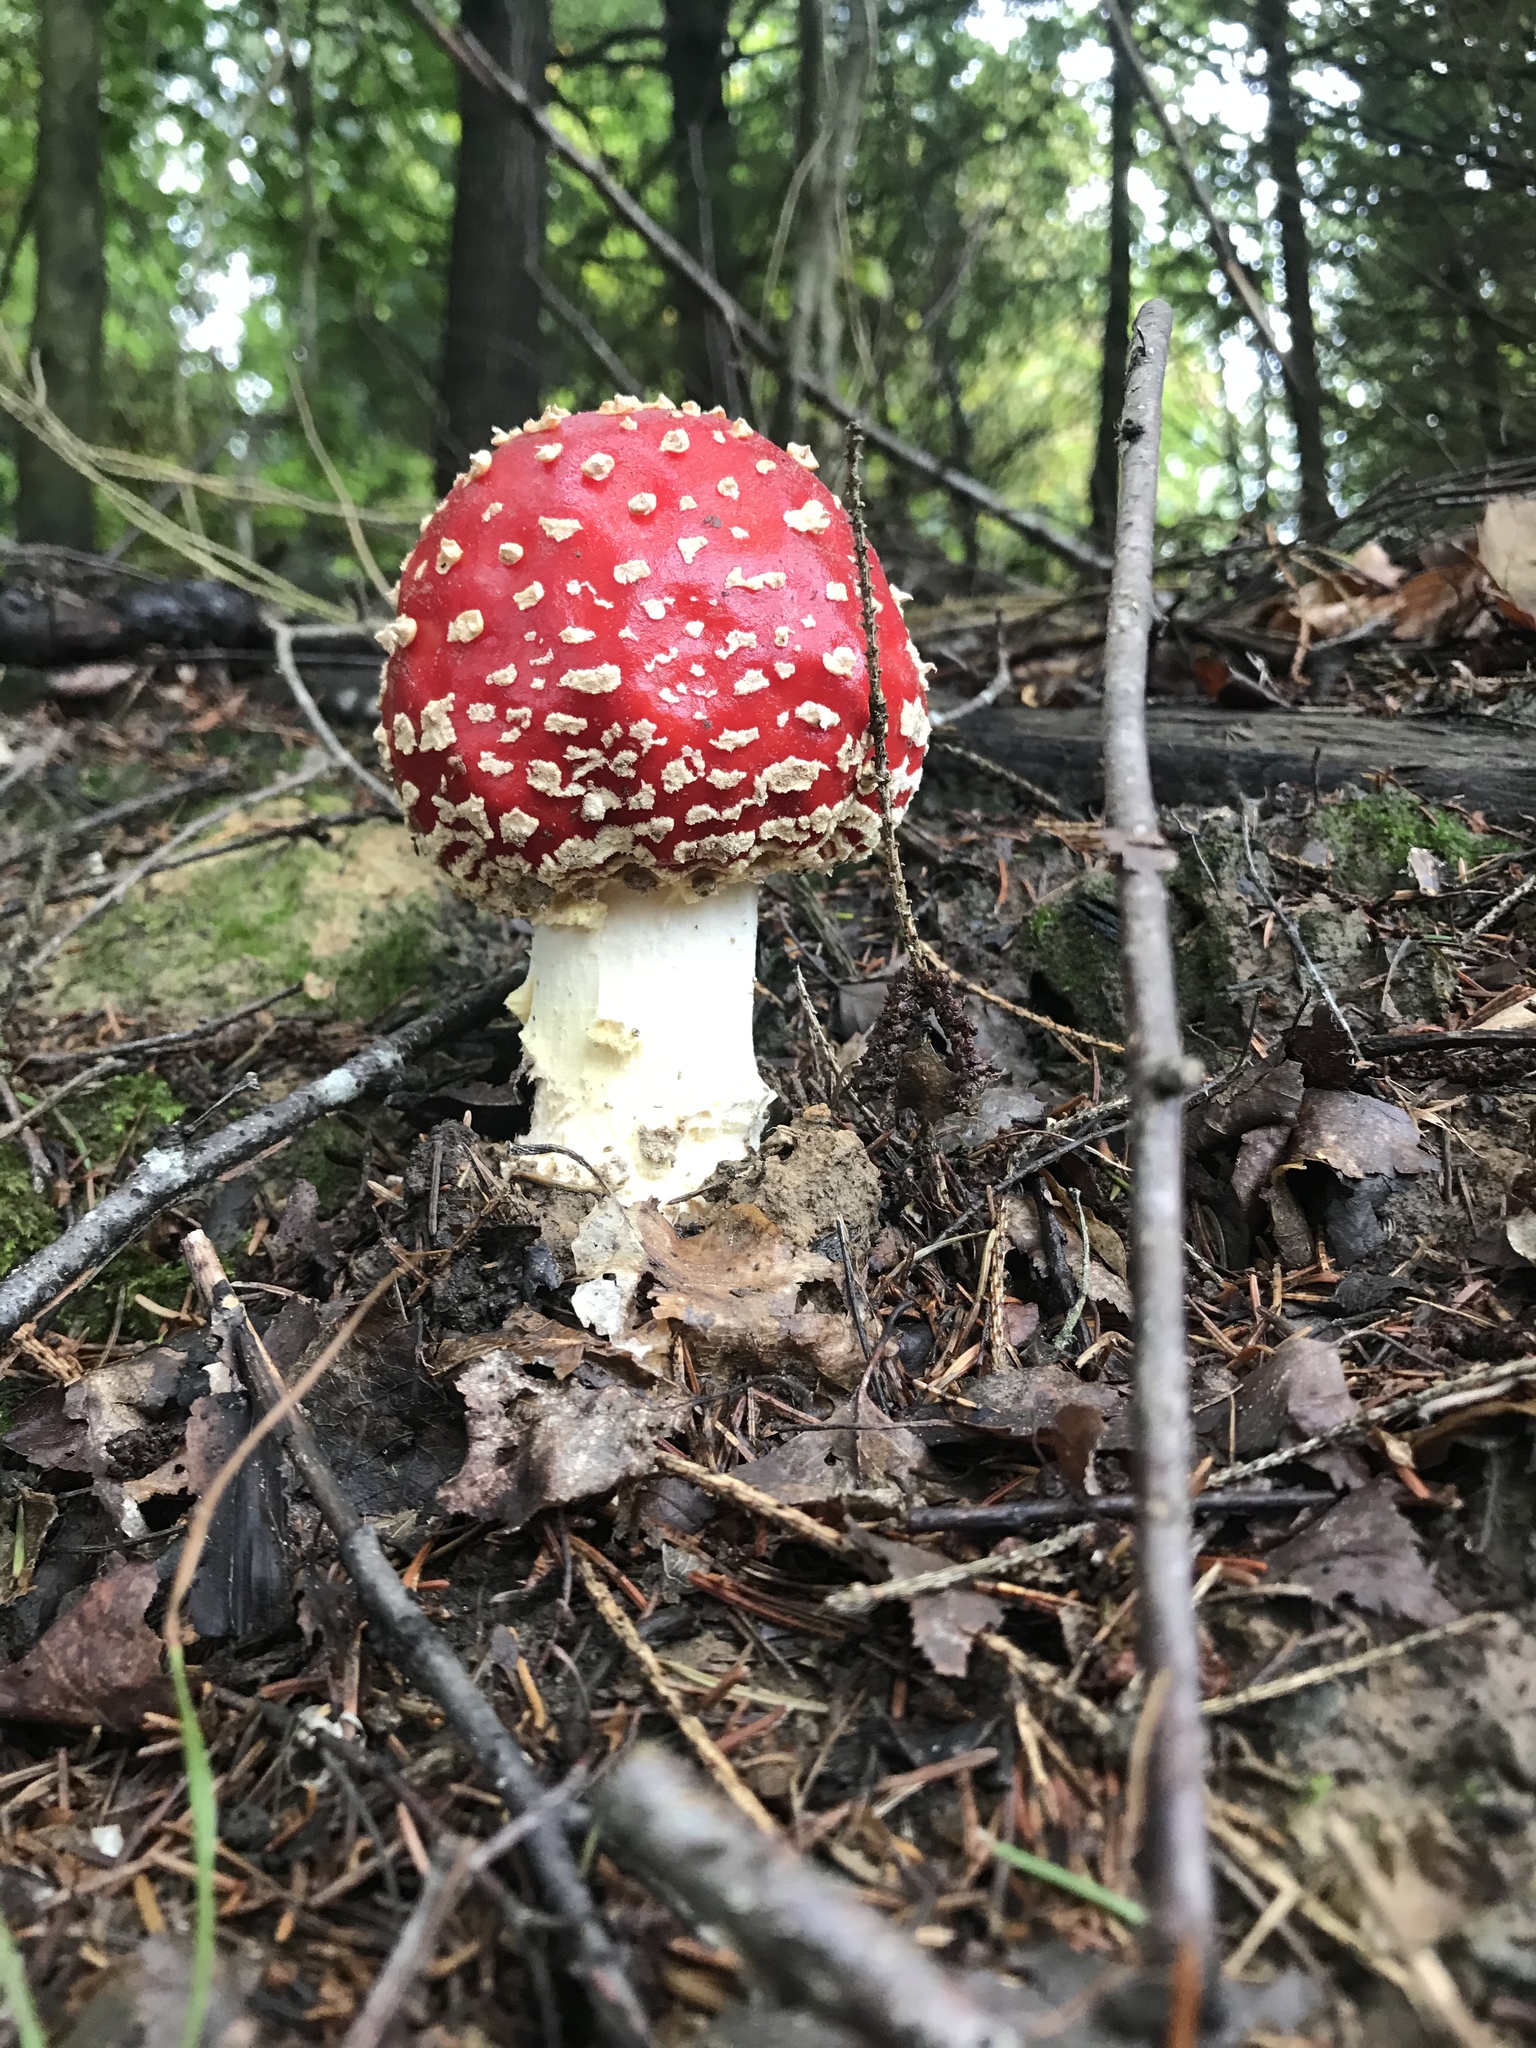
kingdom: Fungi
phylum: Basidiomycota
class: Agaricomycetes
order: Agaricales
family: Amanitaceae
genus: Amanita
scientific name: Amanita muscaria
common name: Fly agaric
